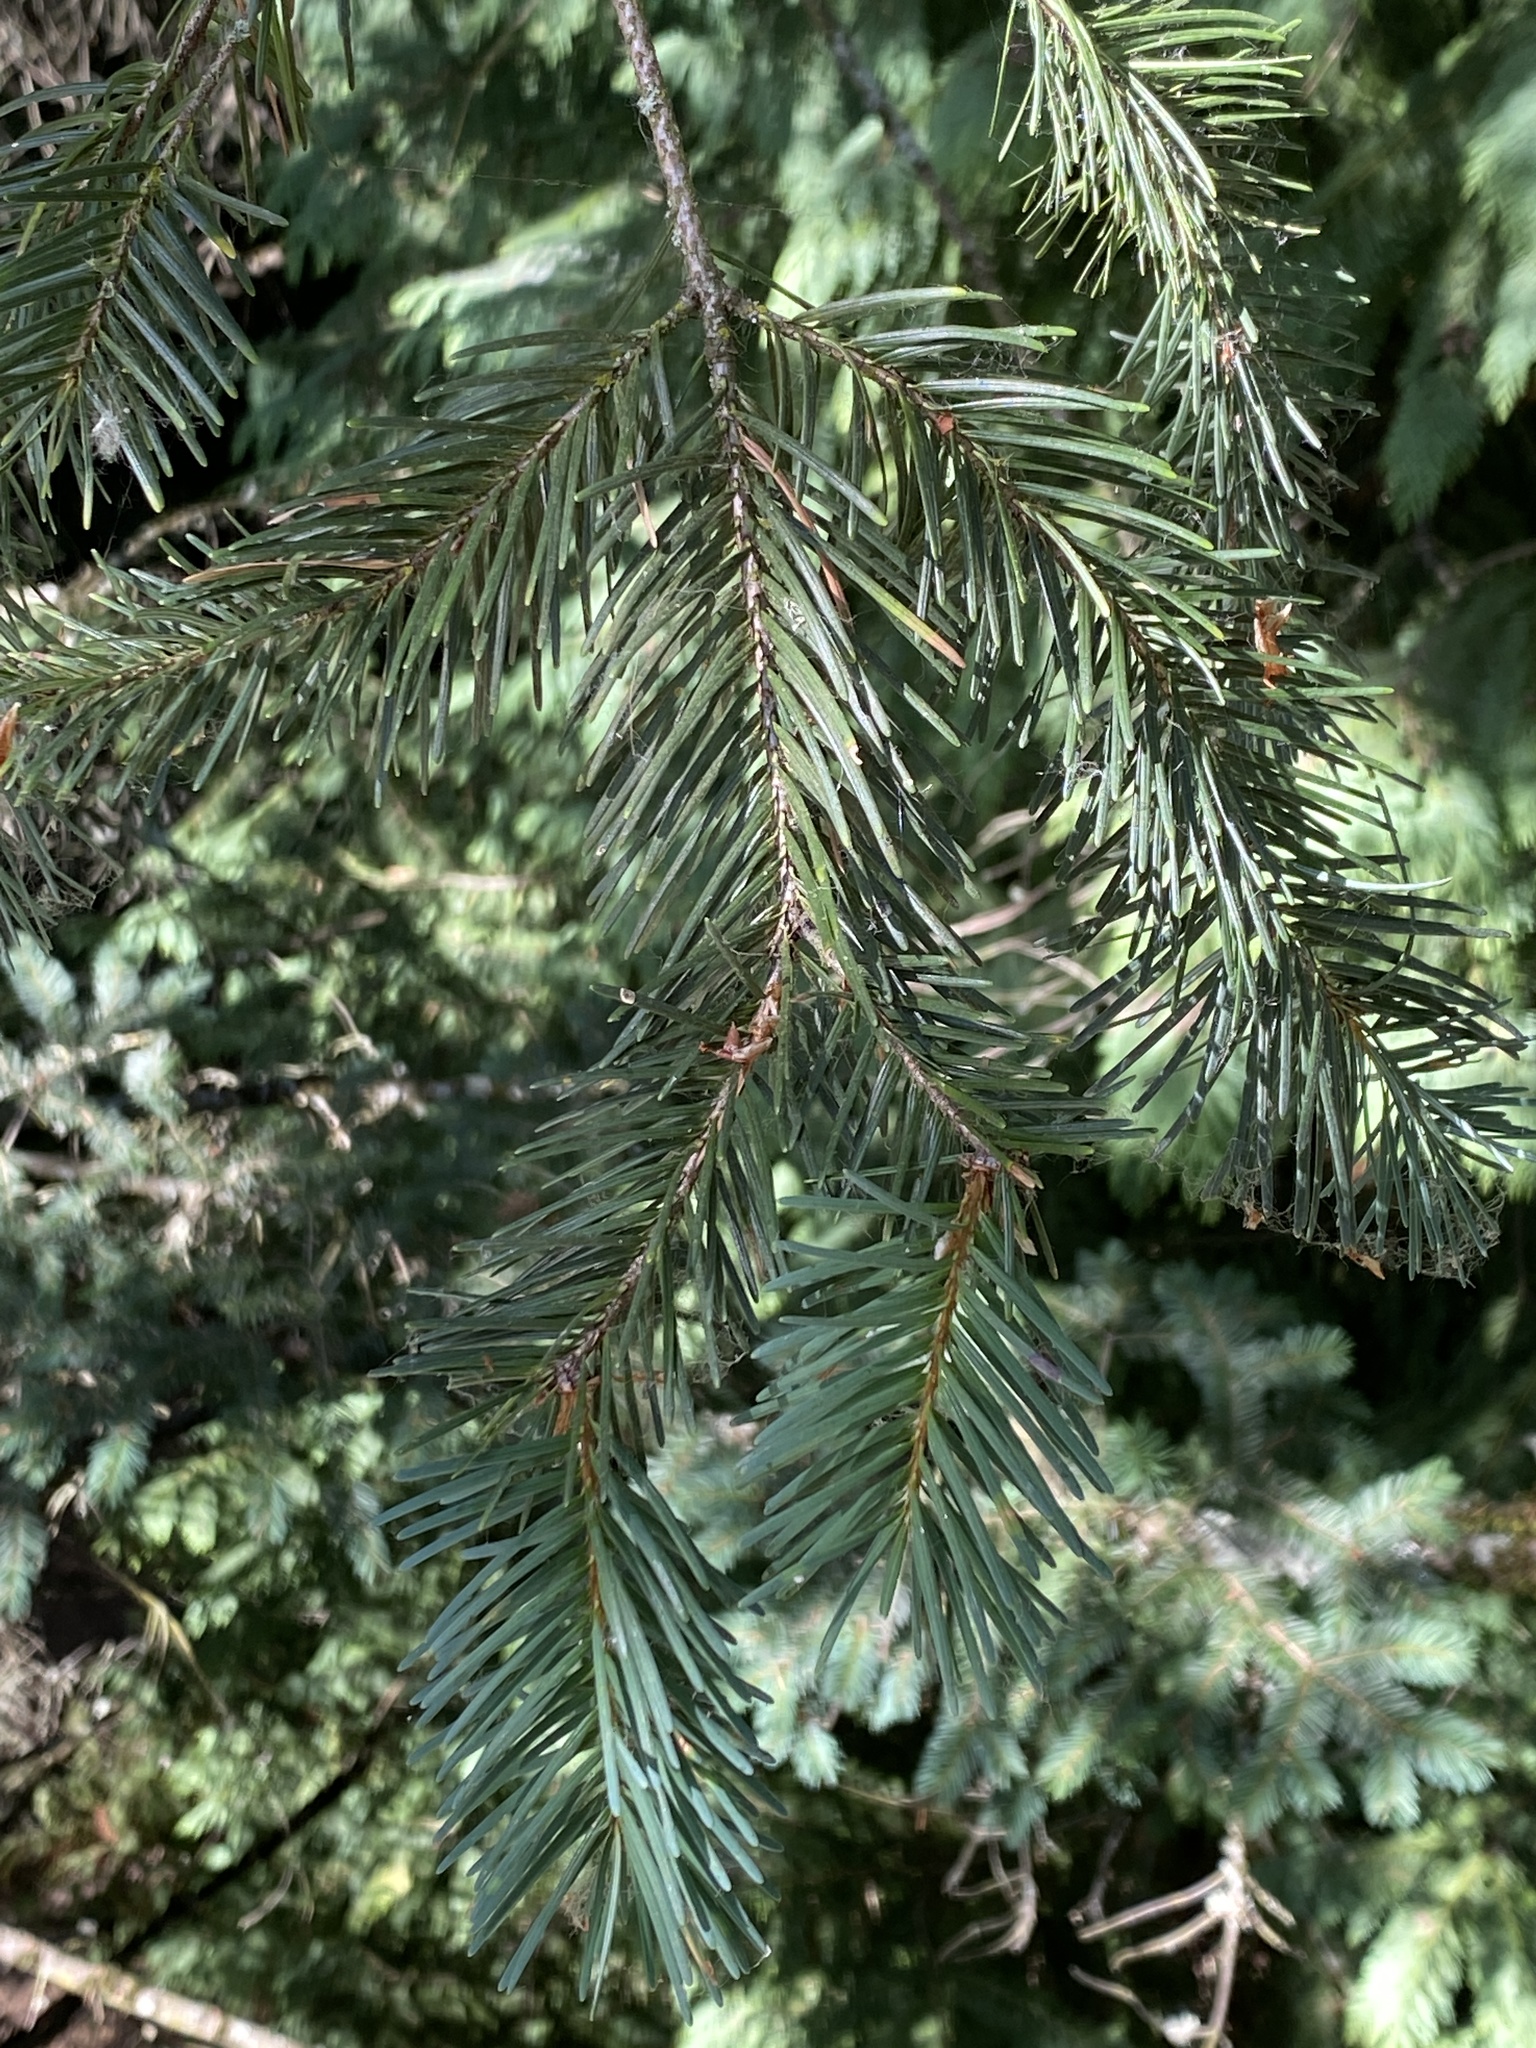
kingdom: Plantae
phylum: Tracheophyta
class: Pinopsida
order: Pinales
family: Pinaceae
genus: Pseudotsuga
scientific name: Pseudotsuga menziesii
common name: Douglas fir
